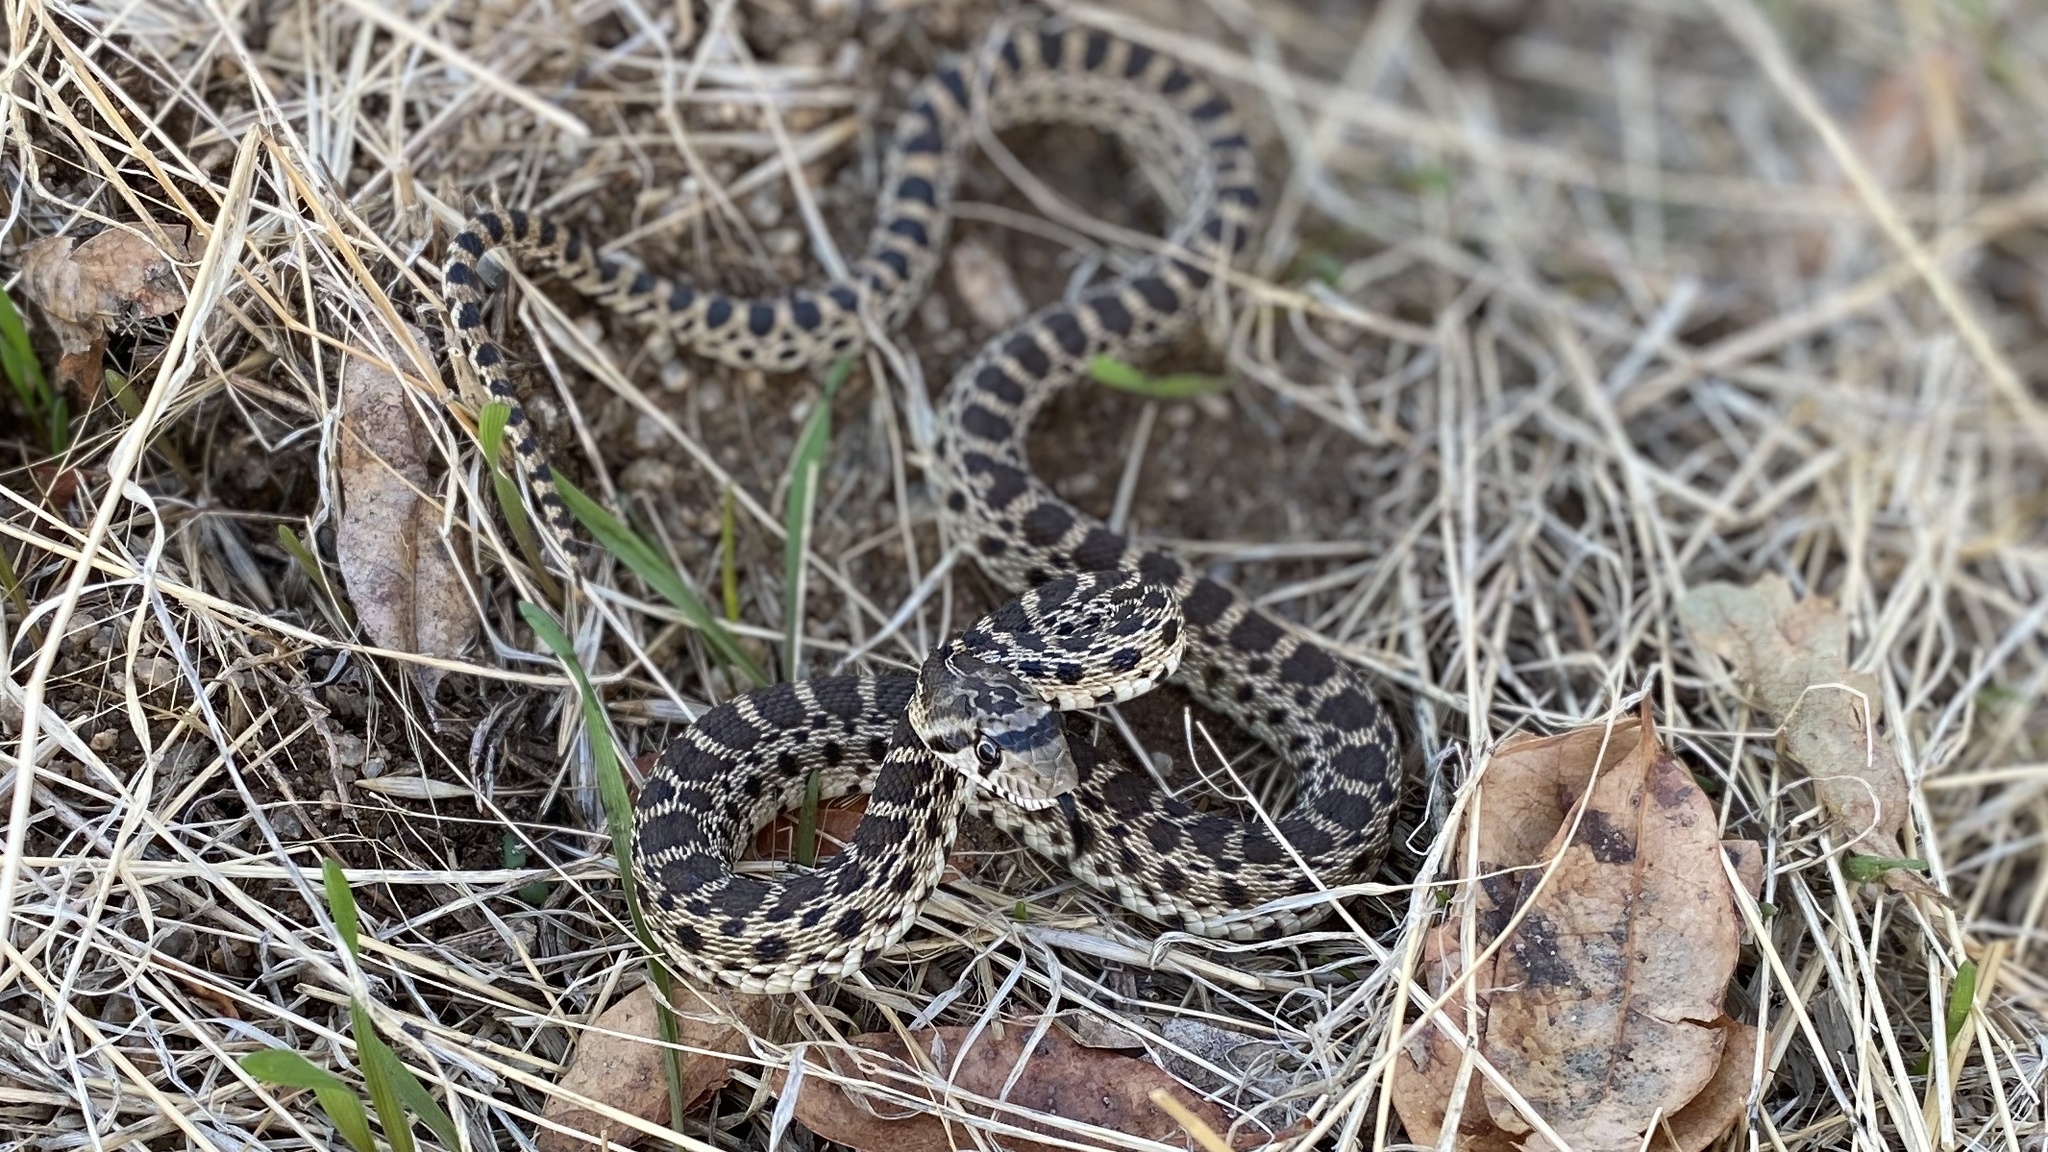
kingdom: Animalia
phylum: Chordata
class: Squamata
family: Colubridae
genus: Pituophis
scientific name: Pituophis catenifer
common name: Gopher snake
